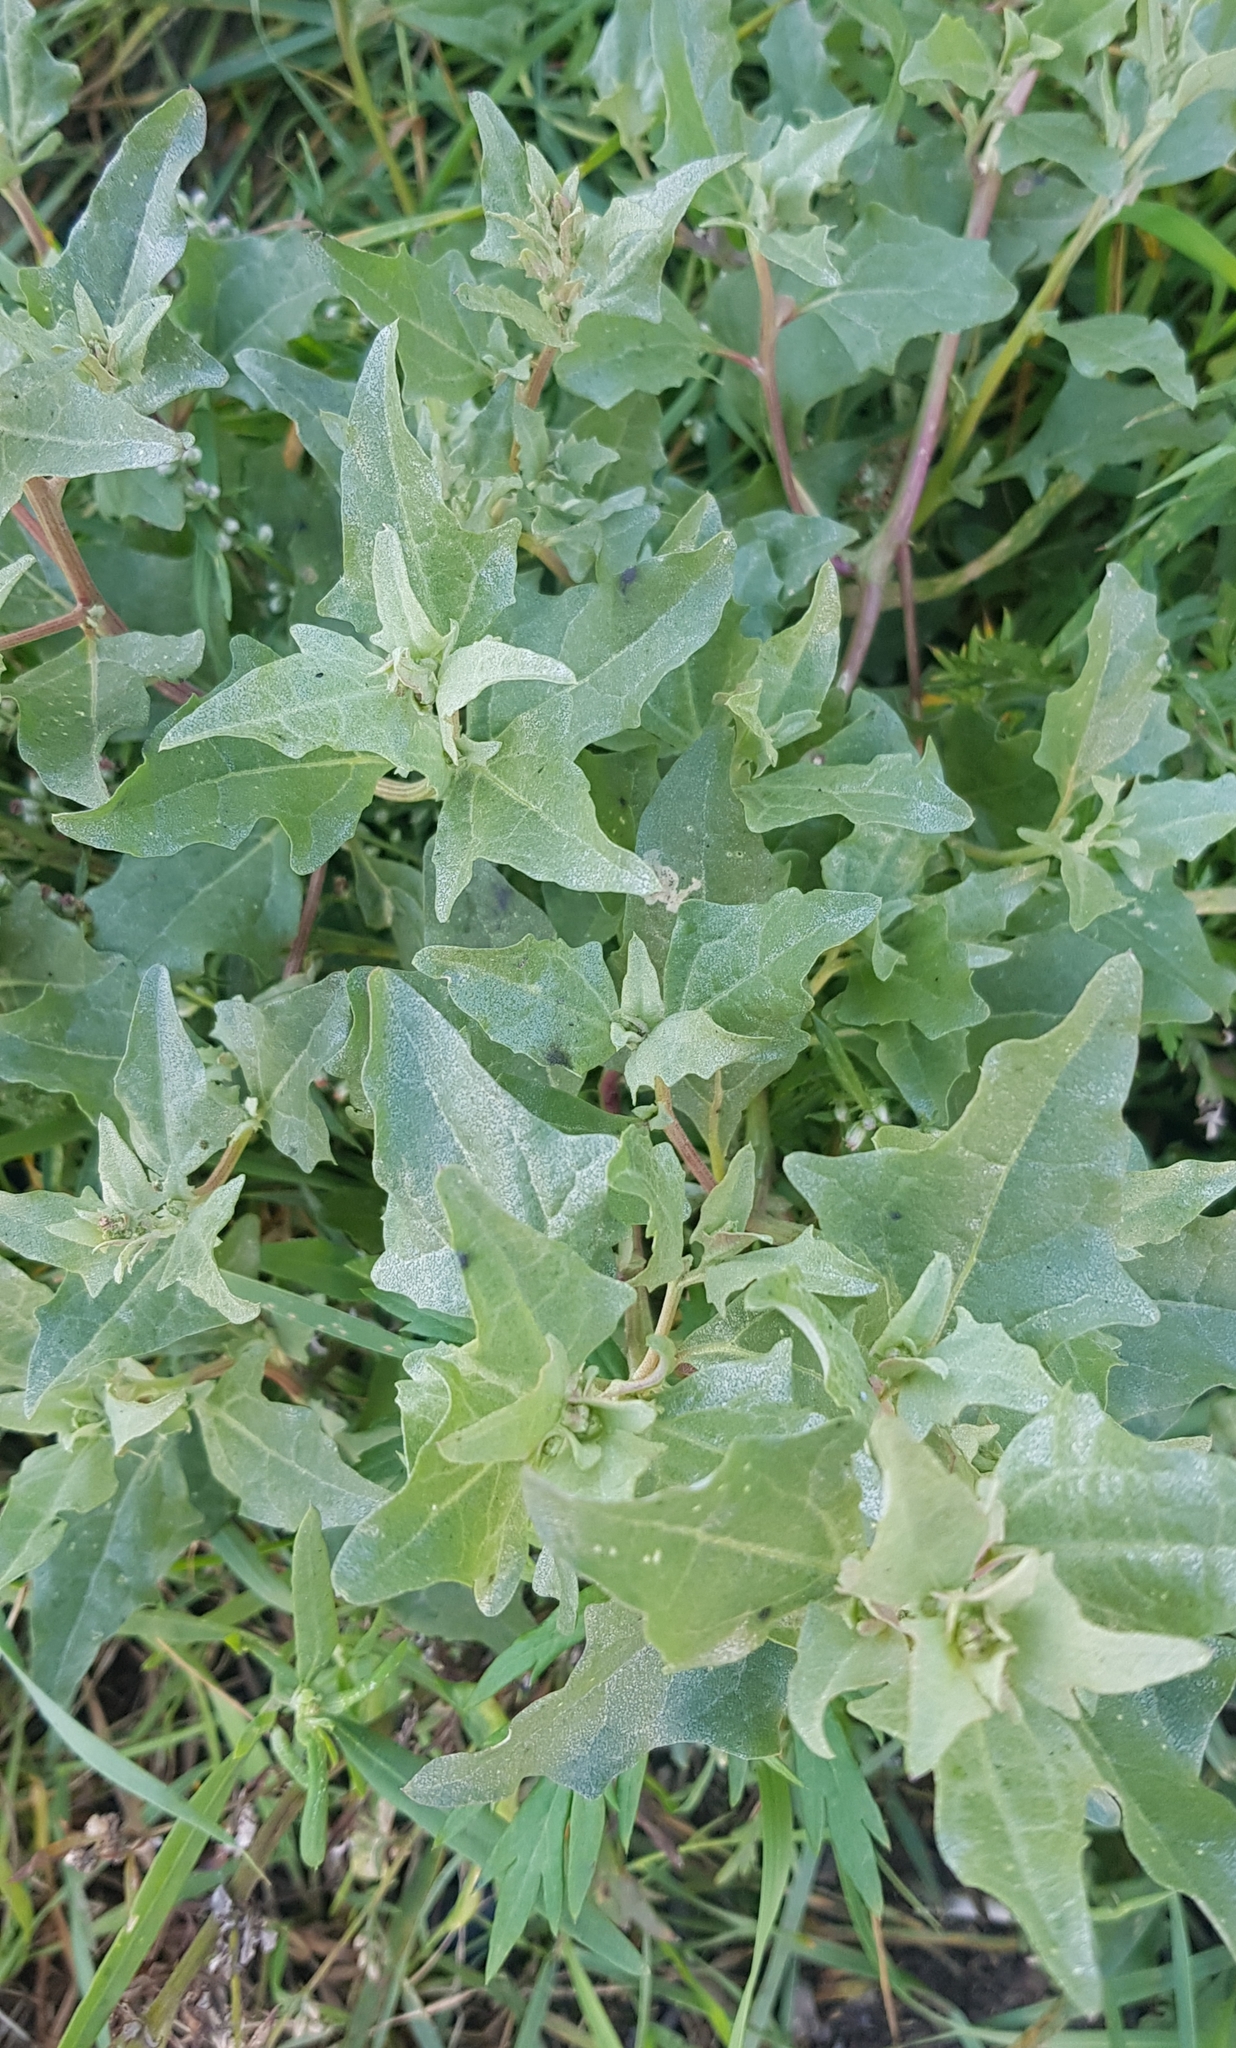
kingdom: Plantae
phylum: Tracheophyta
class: Magnoliopsida
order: Caryophyllales
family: Amaranthaceae
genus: Atriplex
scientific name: Atriplex sibirica
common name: Siberian saltbush
